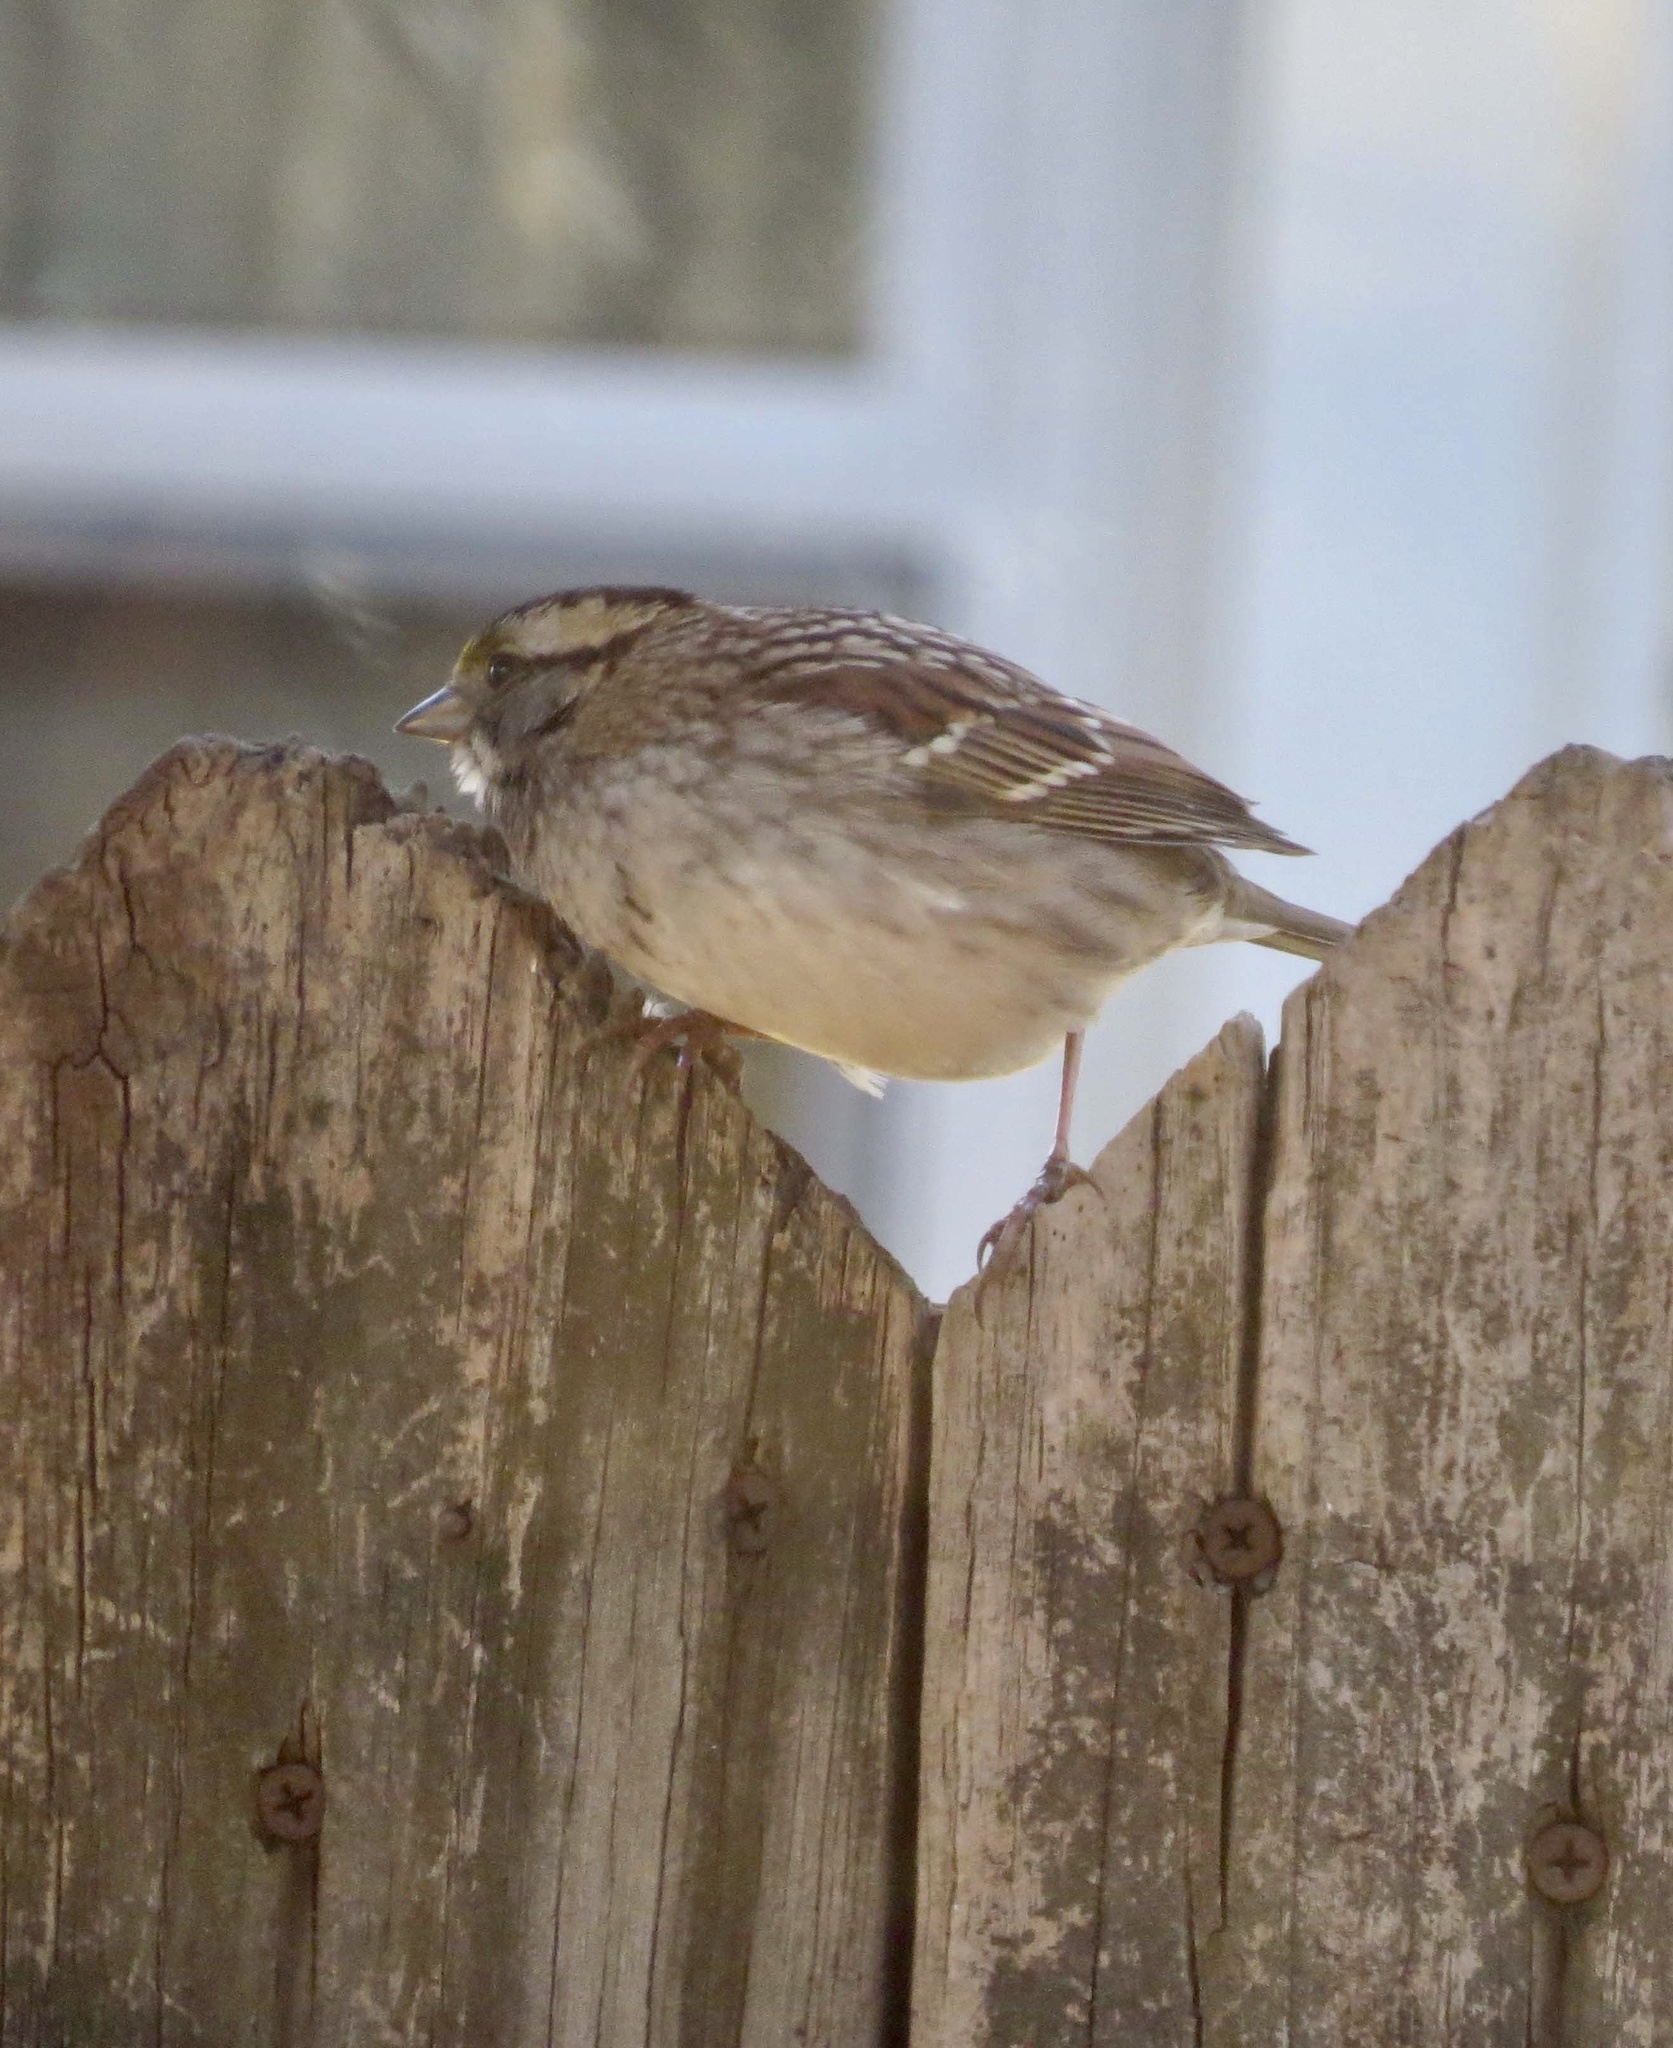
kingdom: Animalia
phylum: Chordata
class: Aves
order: Passeriformes
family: Passerellidae
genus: Zonotrichia
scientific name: Zonotrichia albicollis
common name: White-throated sparrow
